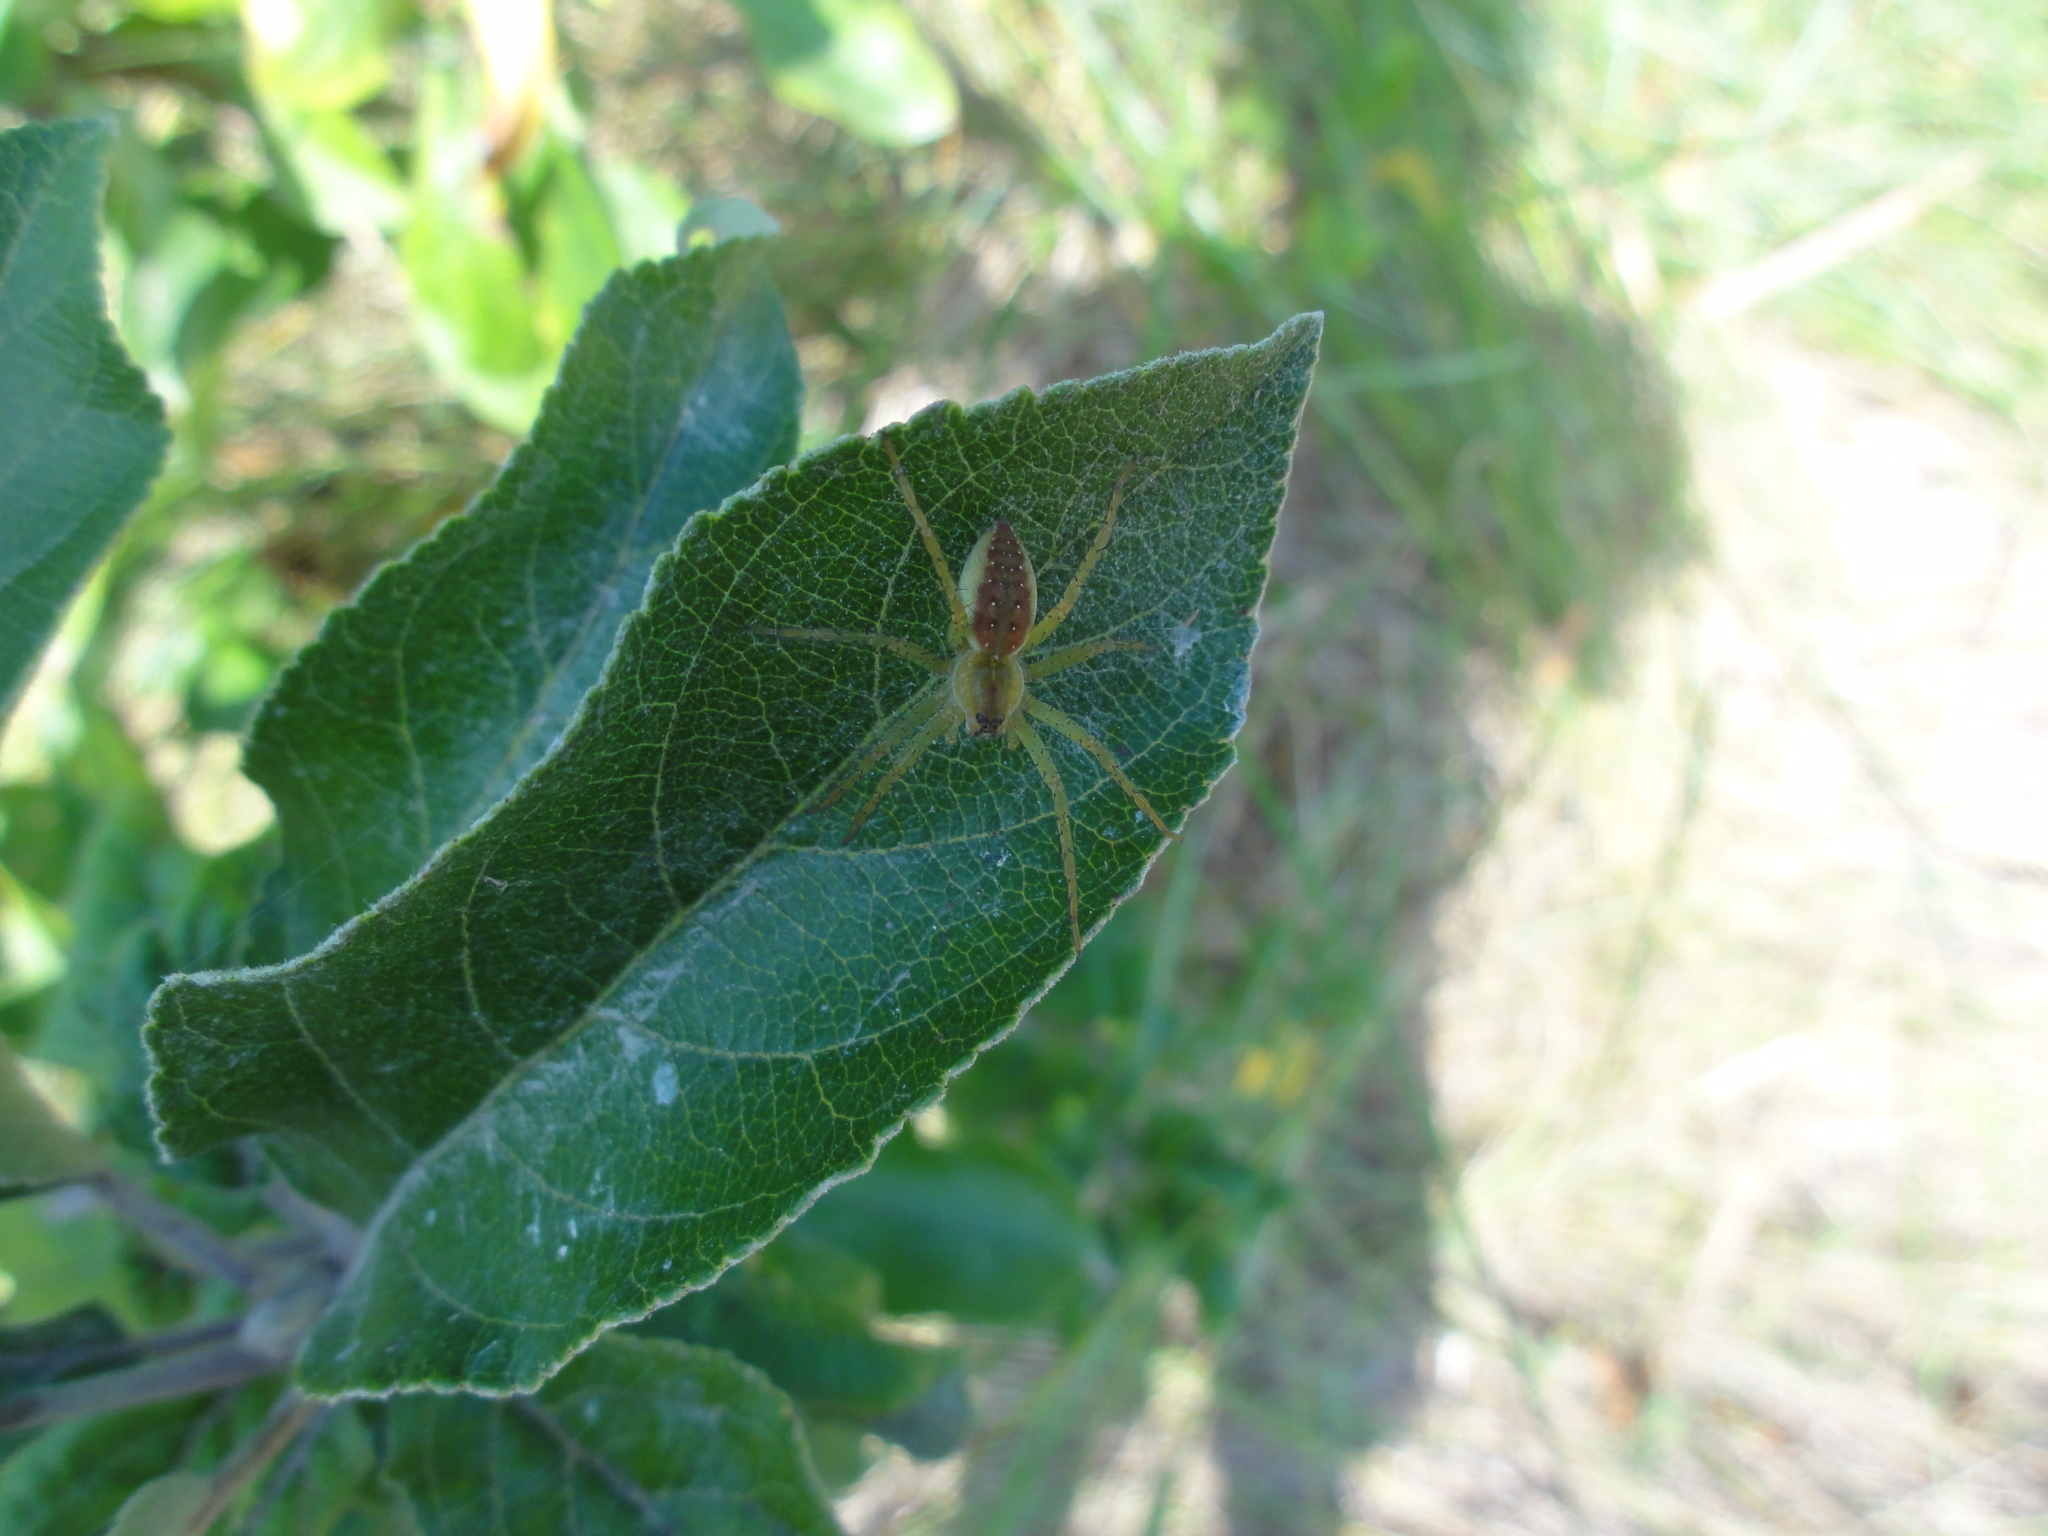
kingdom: Animalia
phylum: Arthropoda
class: Arachnida
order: Araneae
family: Pisauridae
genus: Dolomedes
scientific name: Dolomedes fimbriatus
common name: Raft spider
